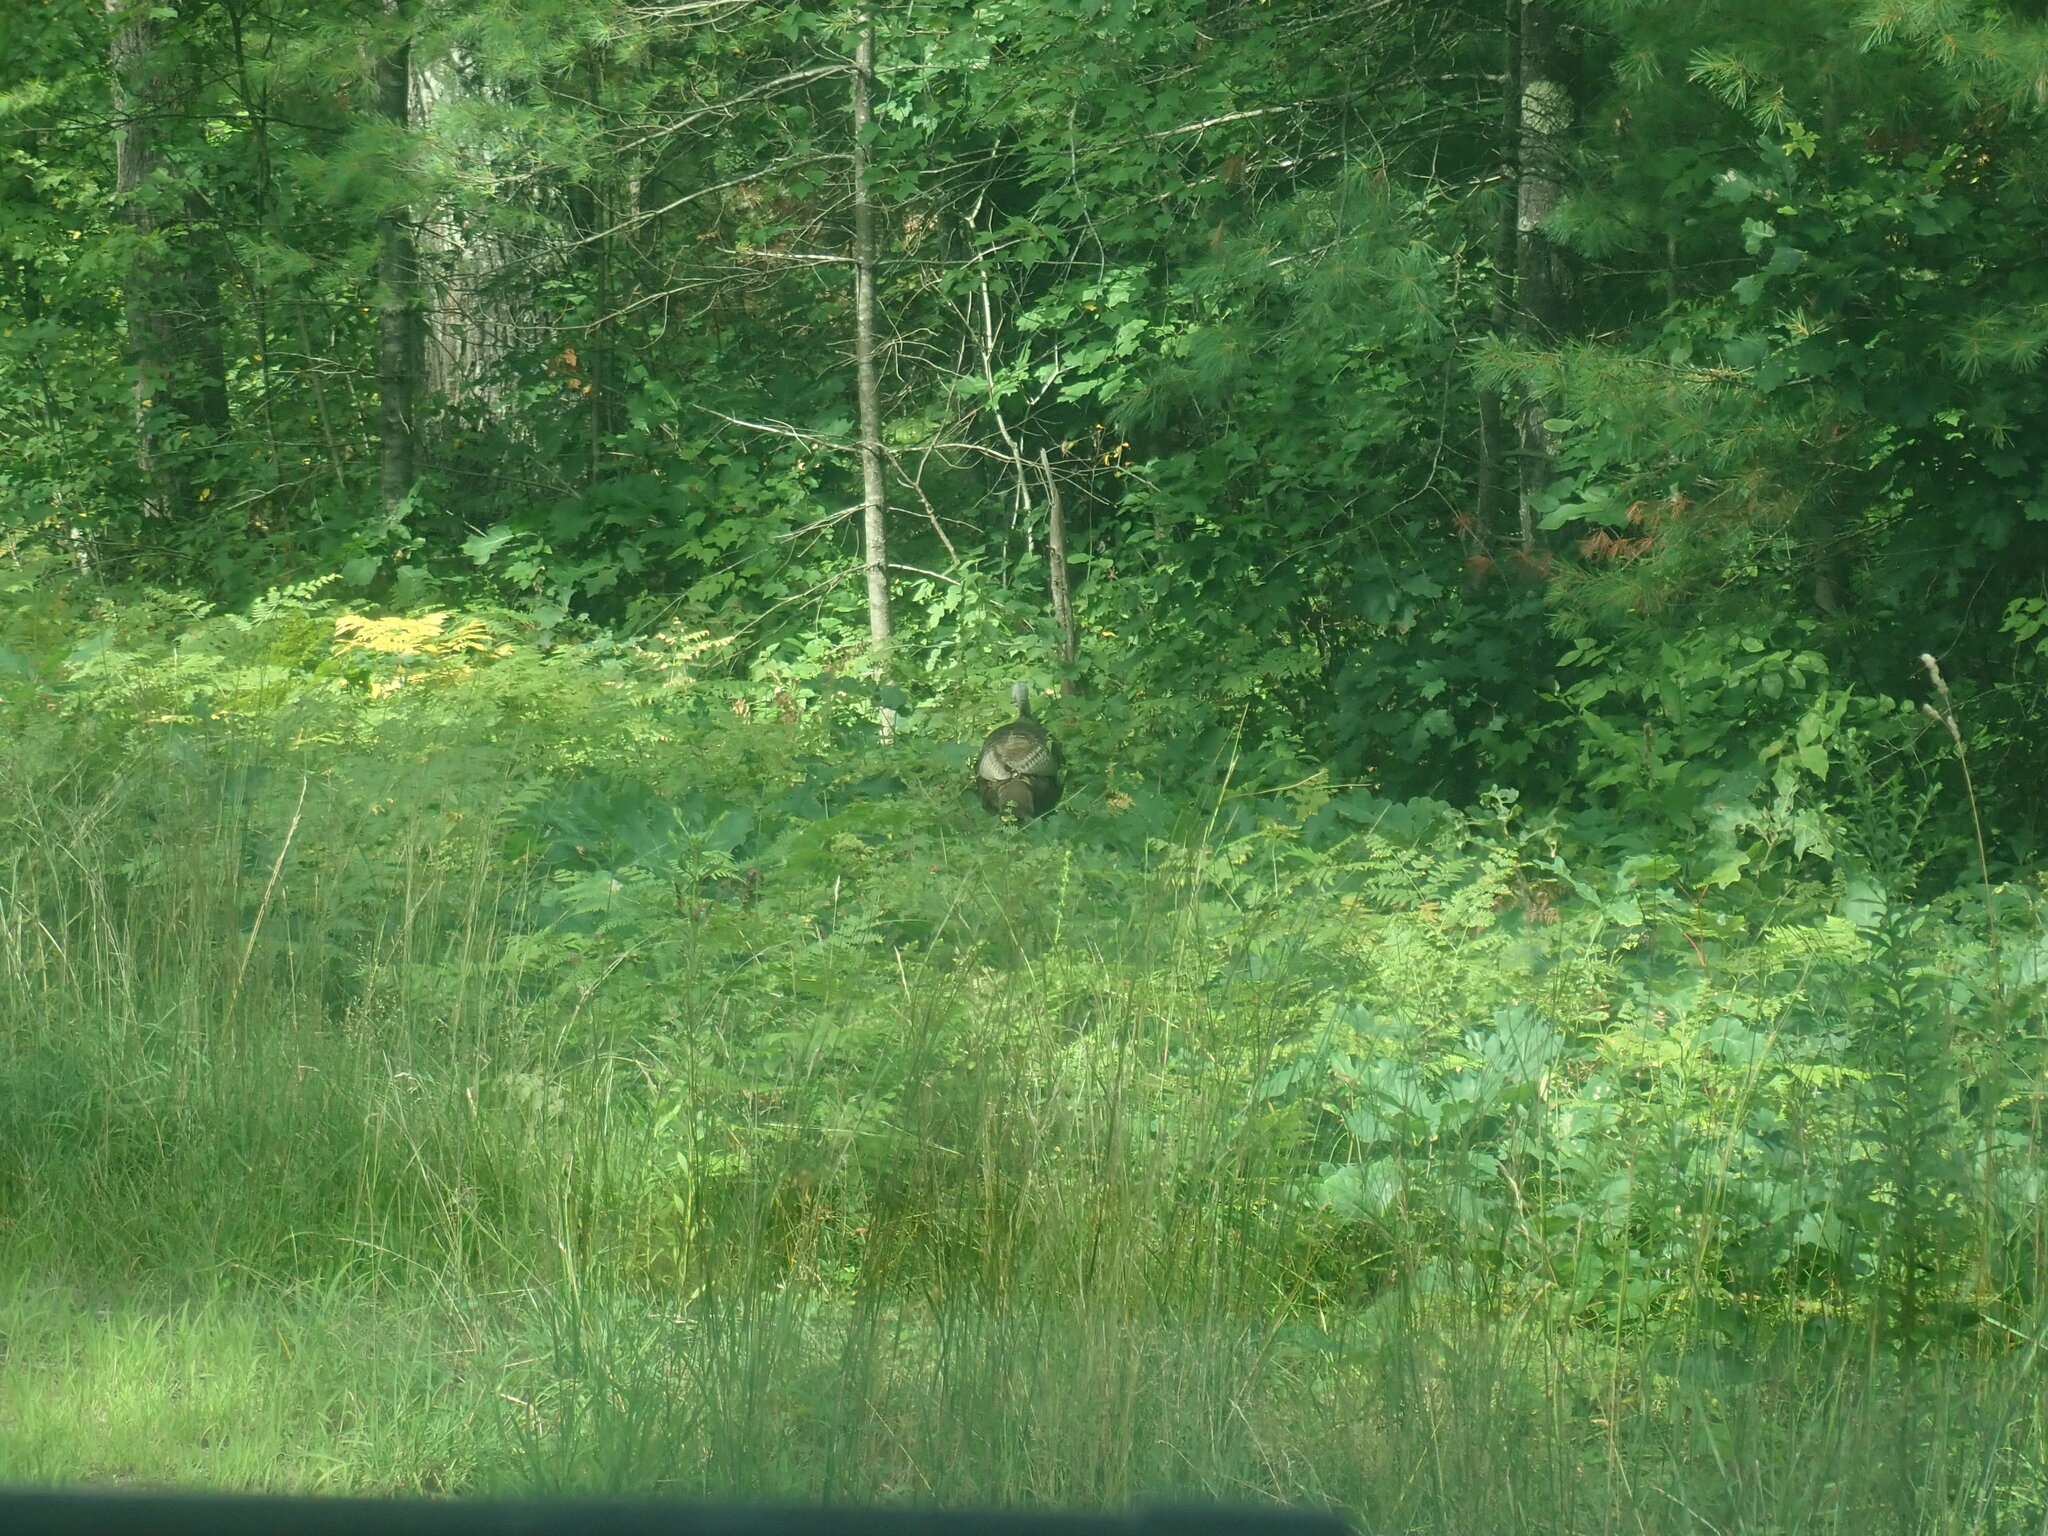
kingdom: Animalia
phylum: Chordata
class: Aves
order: Galliformes
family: Phasianidae
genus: Meleagris
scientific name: Meleagris gallopavo
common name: Wild turkey
